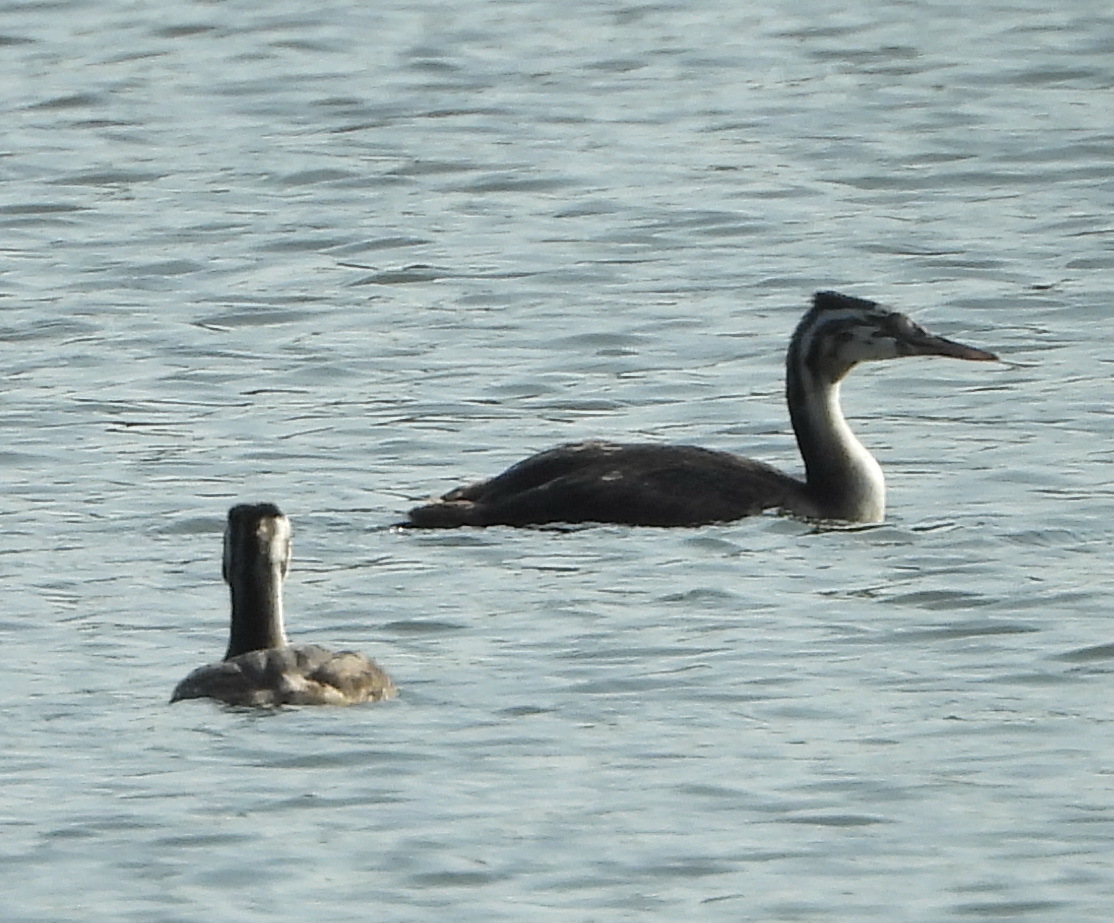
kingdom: Animalia
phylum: Chordata
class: Aves
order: Podicipediformes
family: Podicipedidae
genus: Podiceps
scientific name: Podiceps cristatus
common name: Great crested grebe
